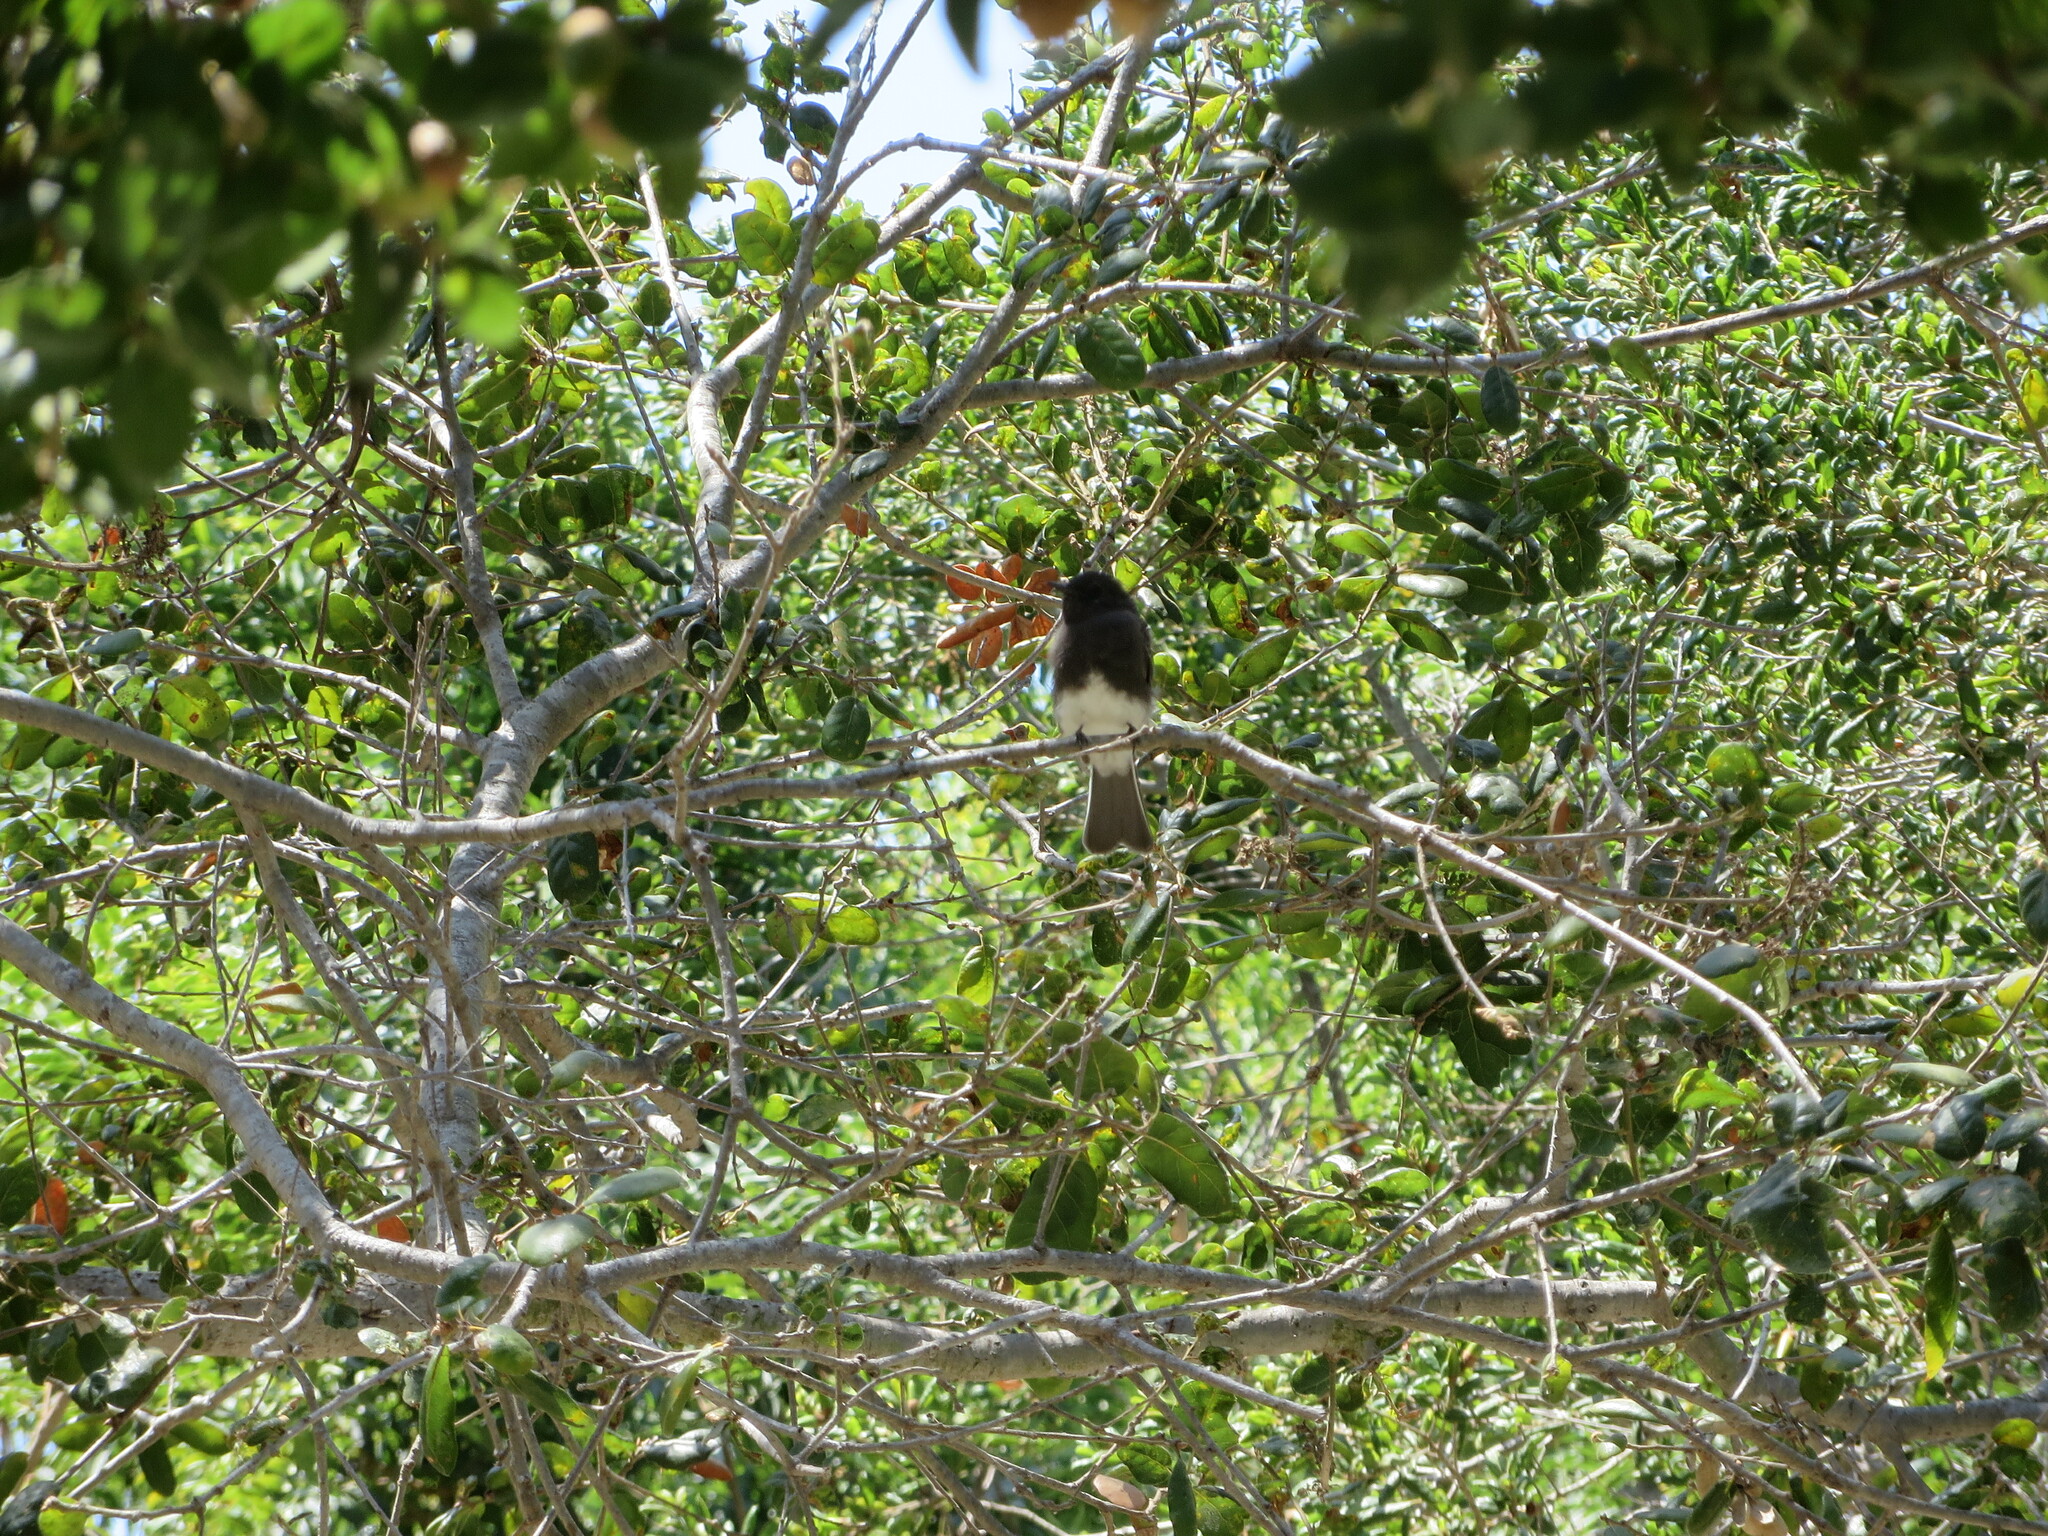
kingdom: Animalia
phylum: Chordata
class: Aves
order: Passeriformes
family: Tyrannidae
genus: Sayornis
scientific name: Sayornis nigricans
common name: Black phoebe
